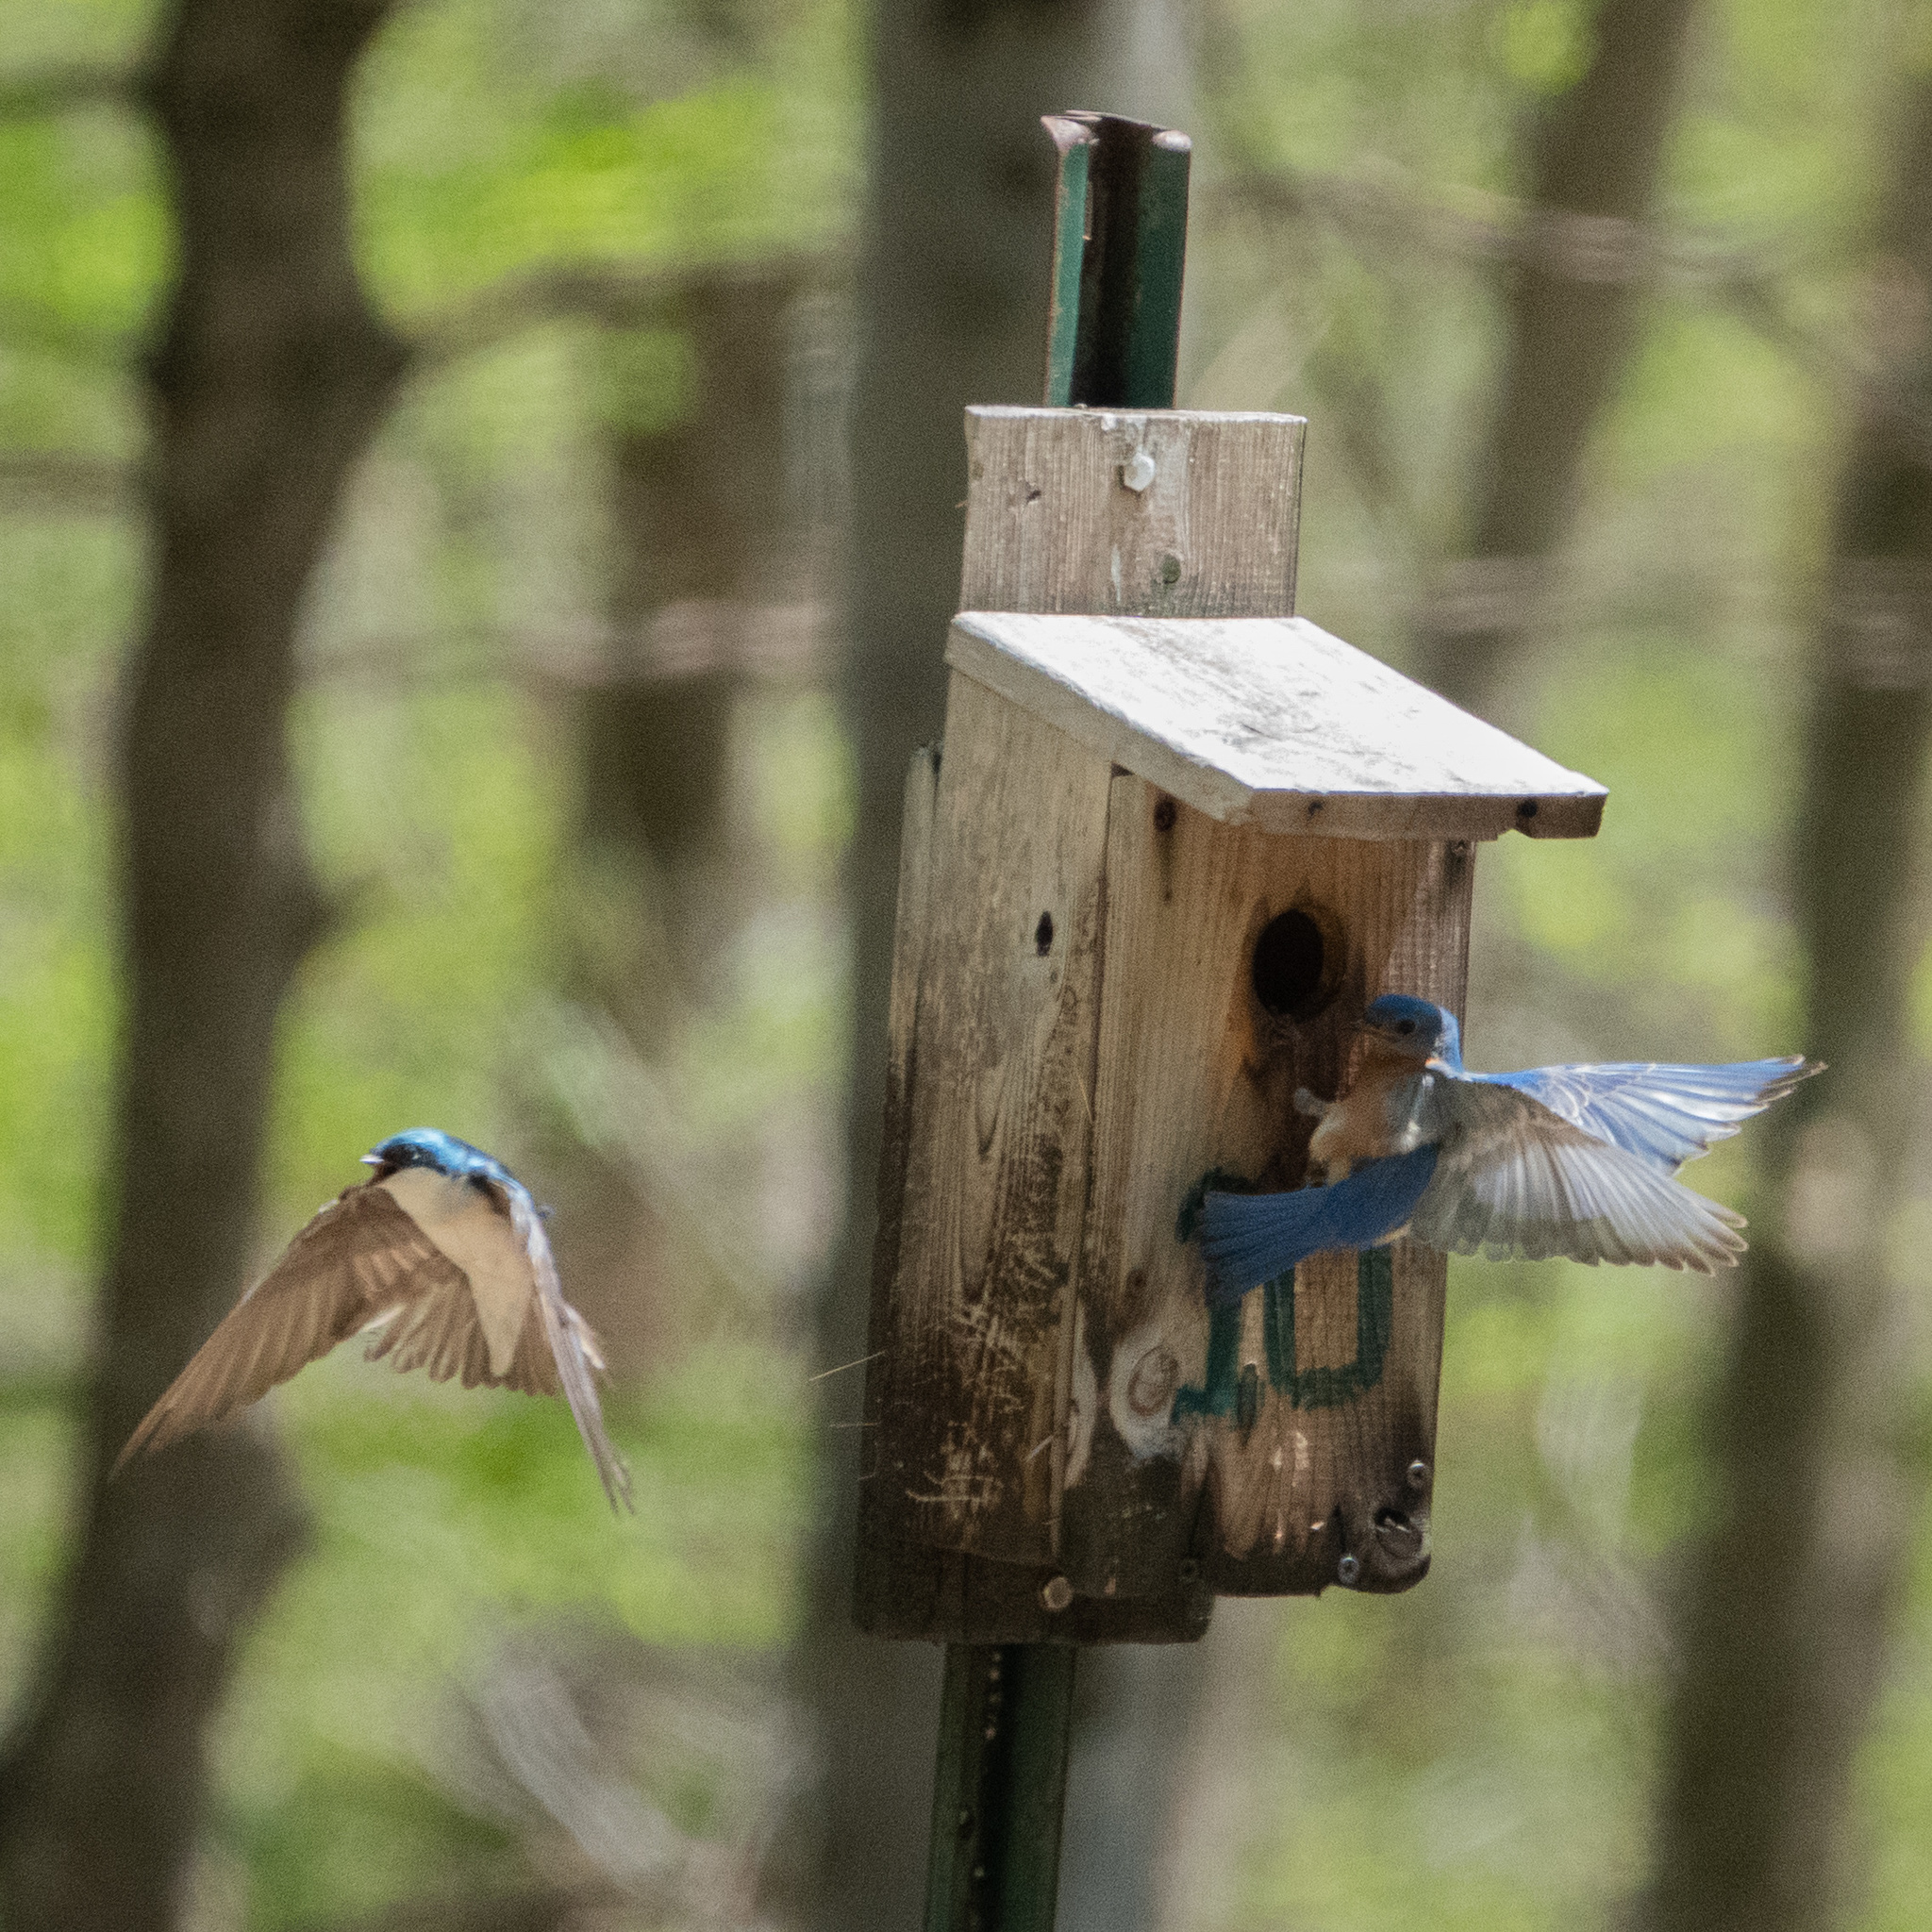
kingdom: Animalia
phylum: Chordata
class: Aves
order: Passeriformes
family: Turdidae
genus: Sialia
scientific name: Sialia sialis
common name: Eastern bluebird
